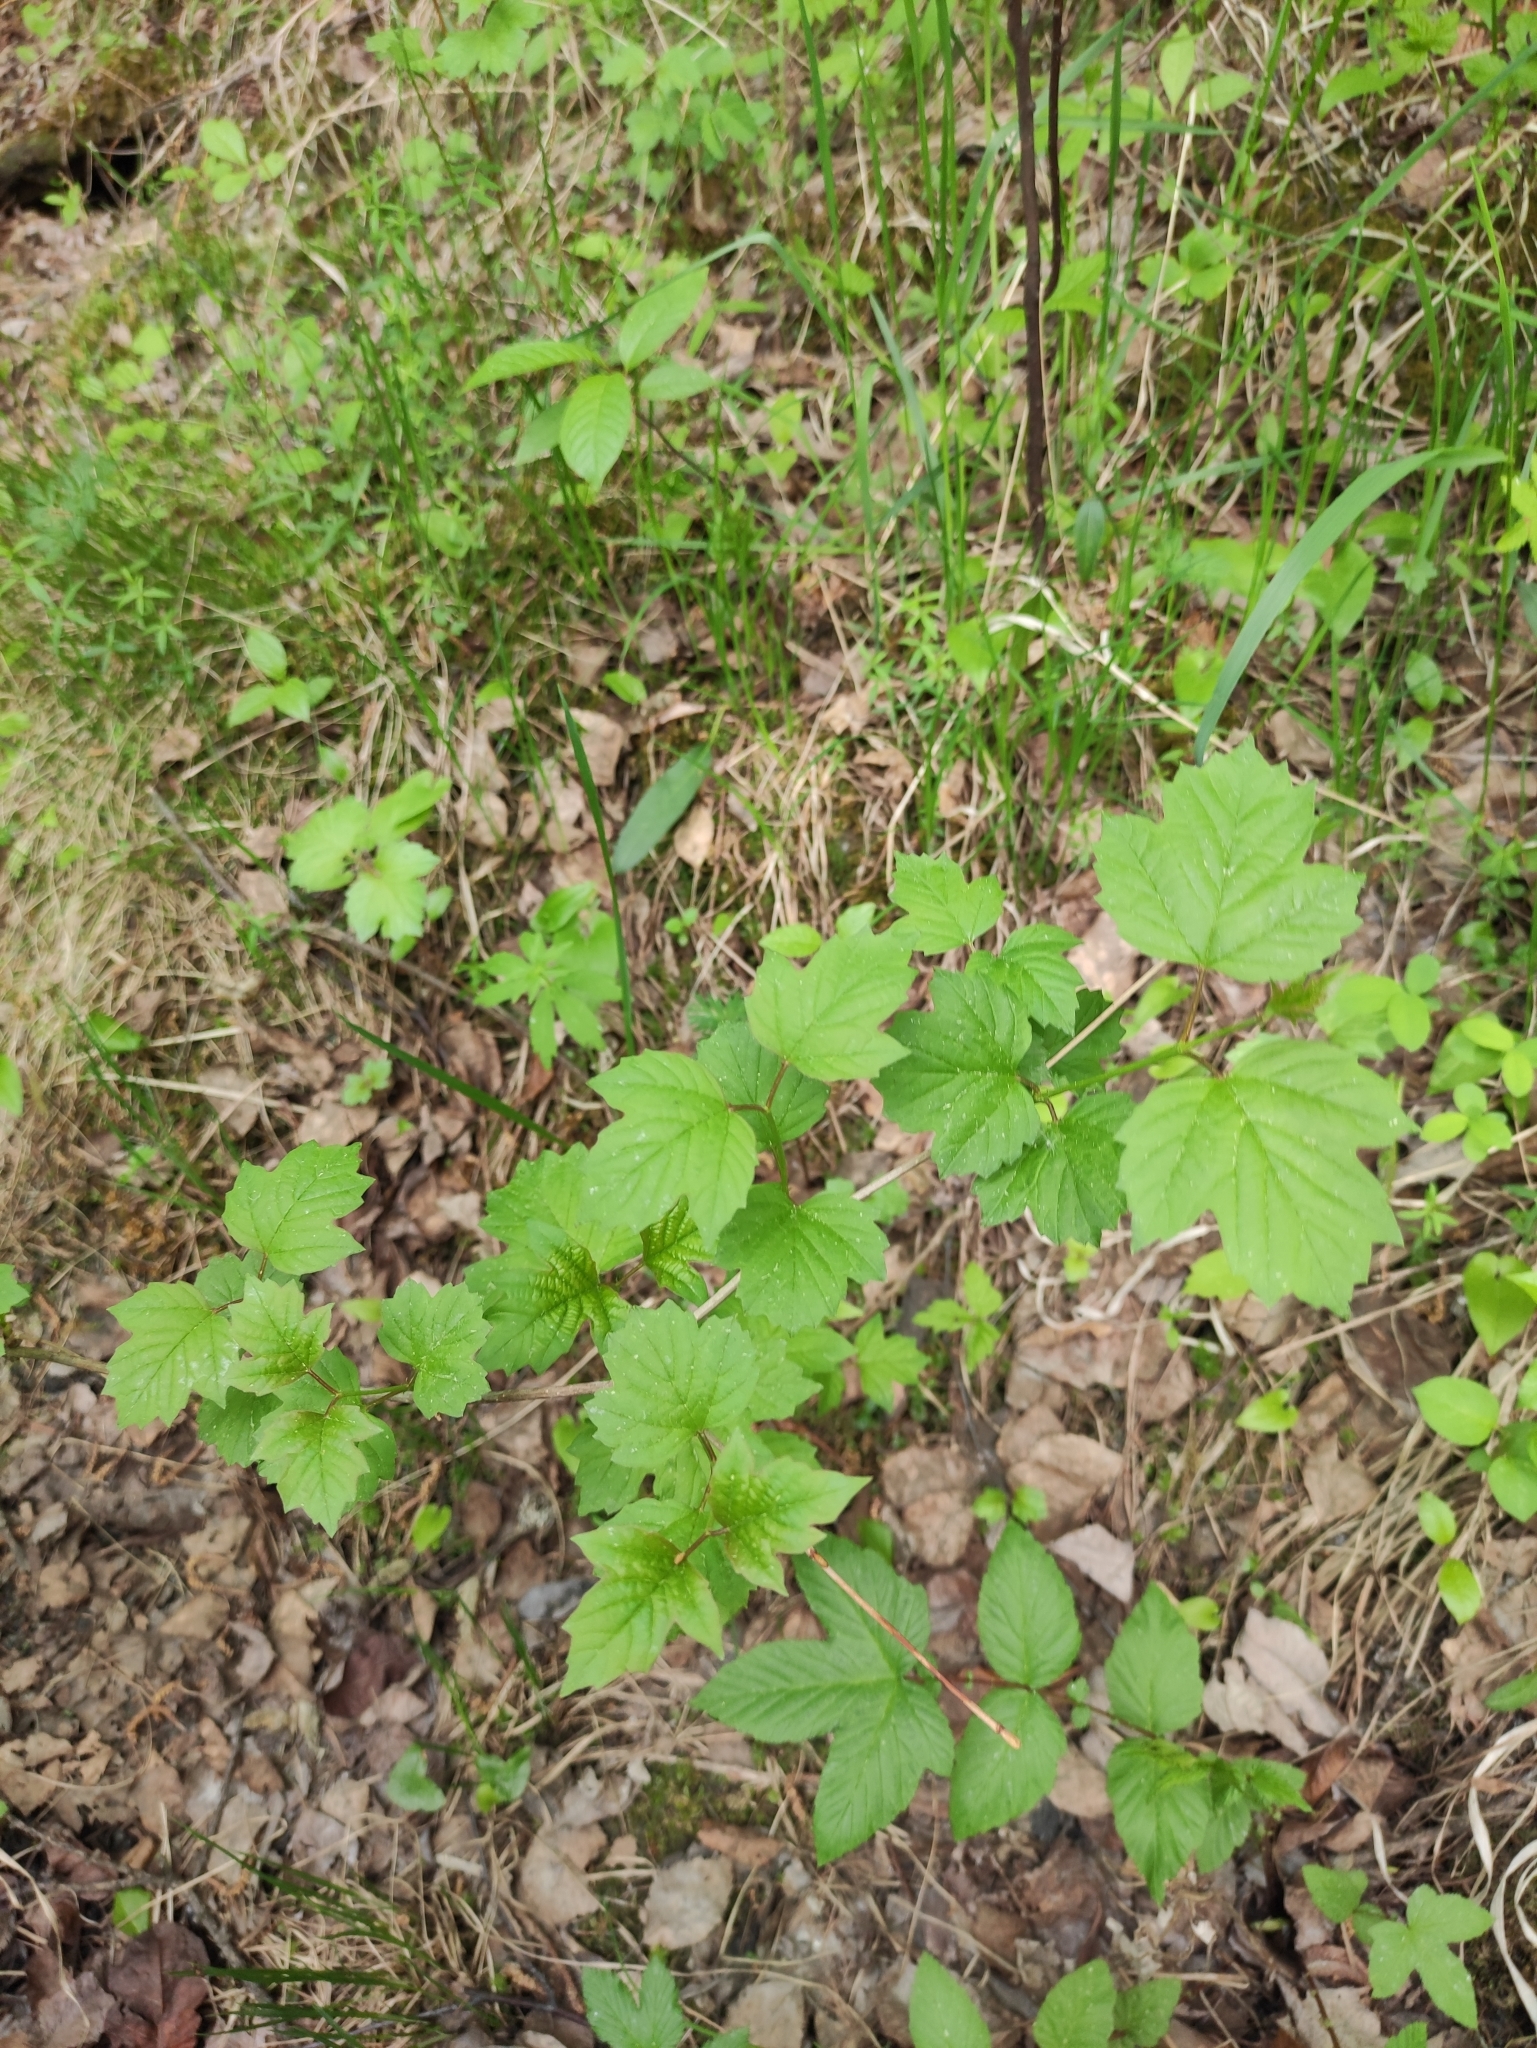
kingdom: Plantae
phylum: Tracheophyta
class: Magnoliopsida
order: Dipsacales
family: Viburnaceae
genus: Viburnum
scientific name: Viburnum opulus
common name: Guelder-rose
